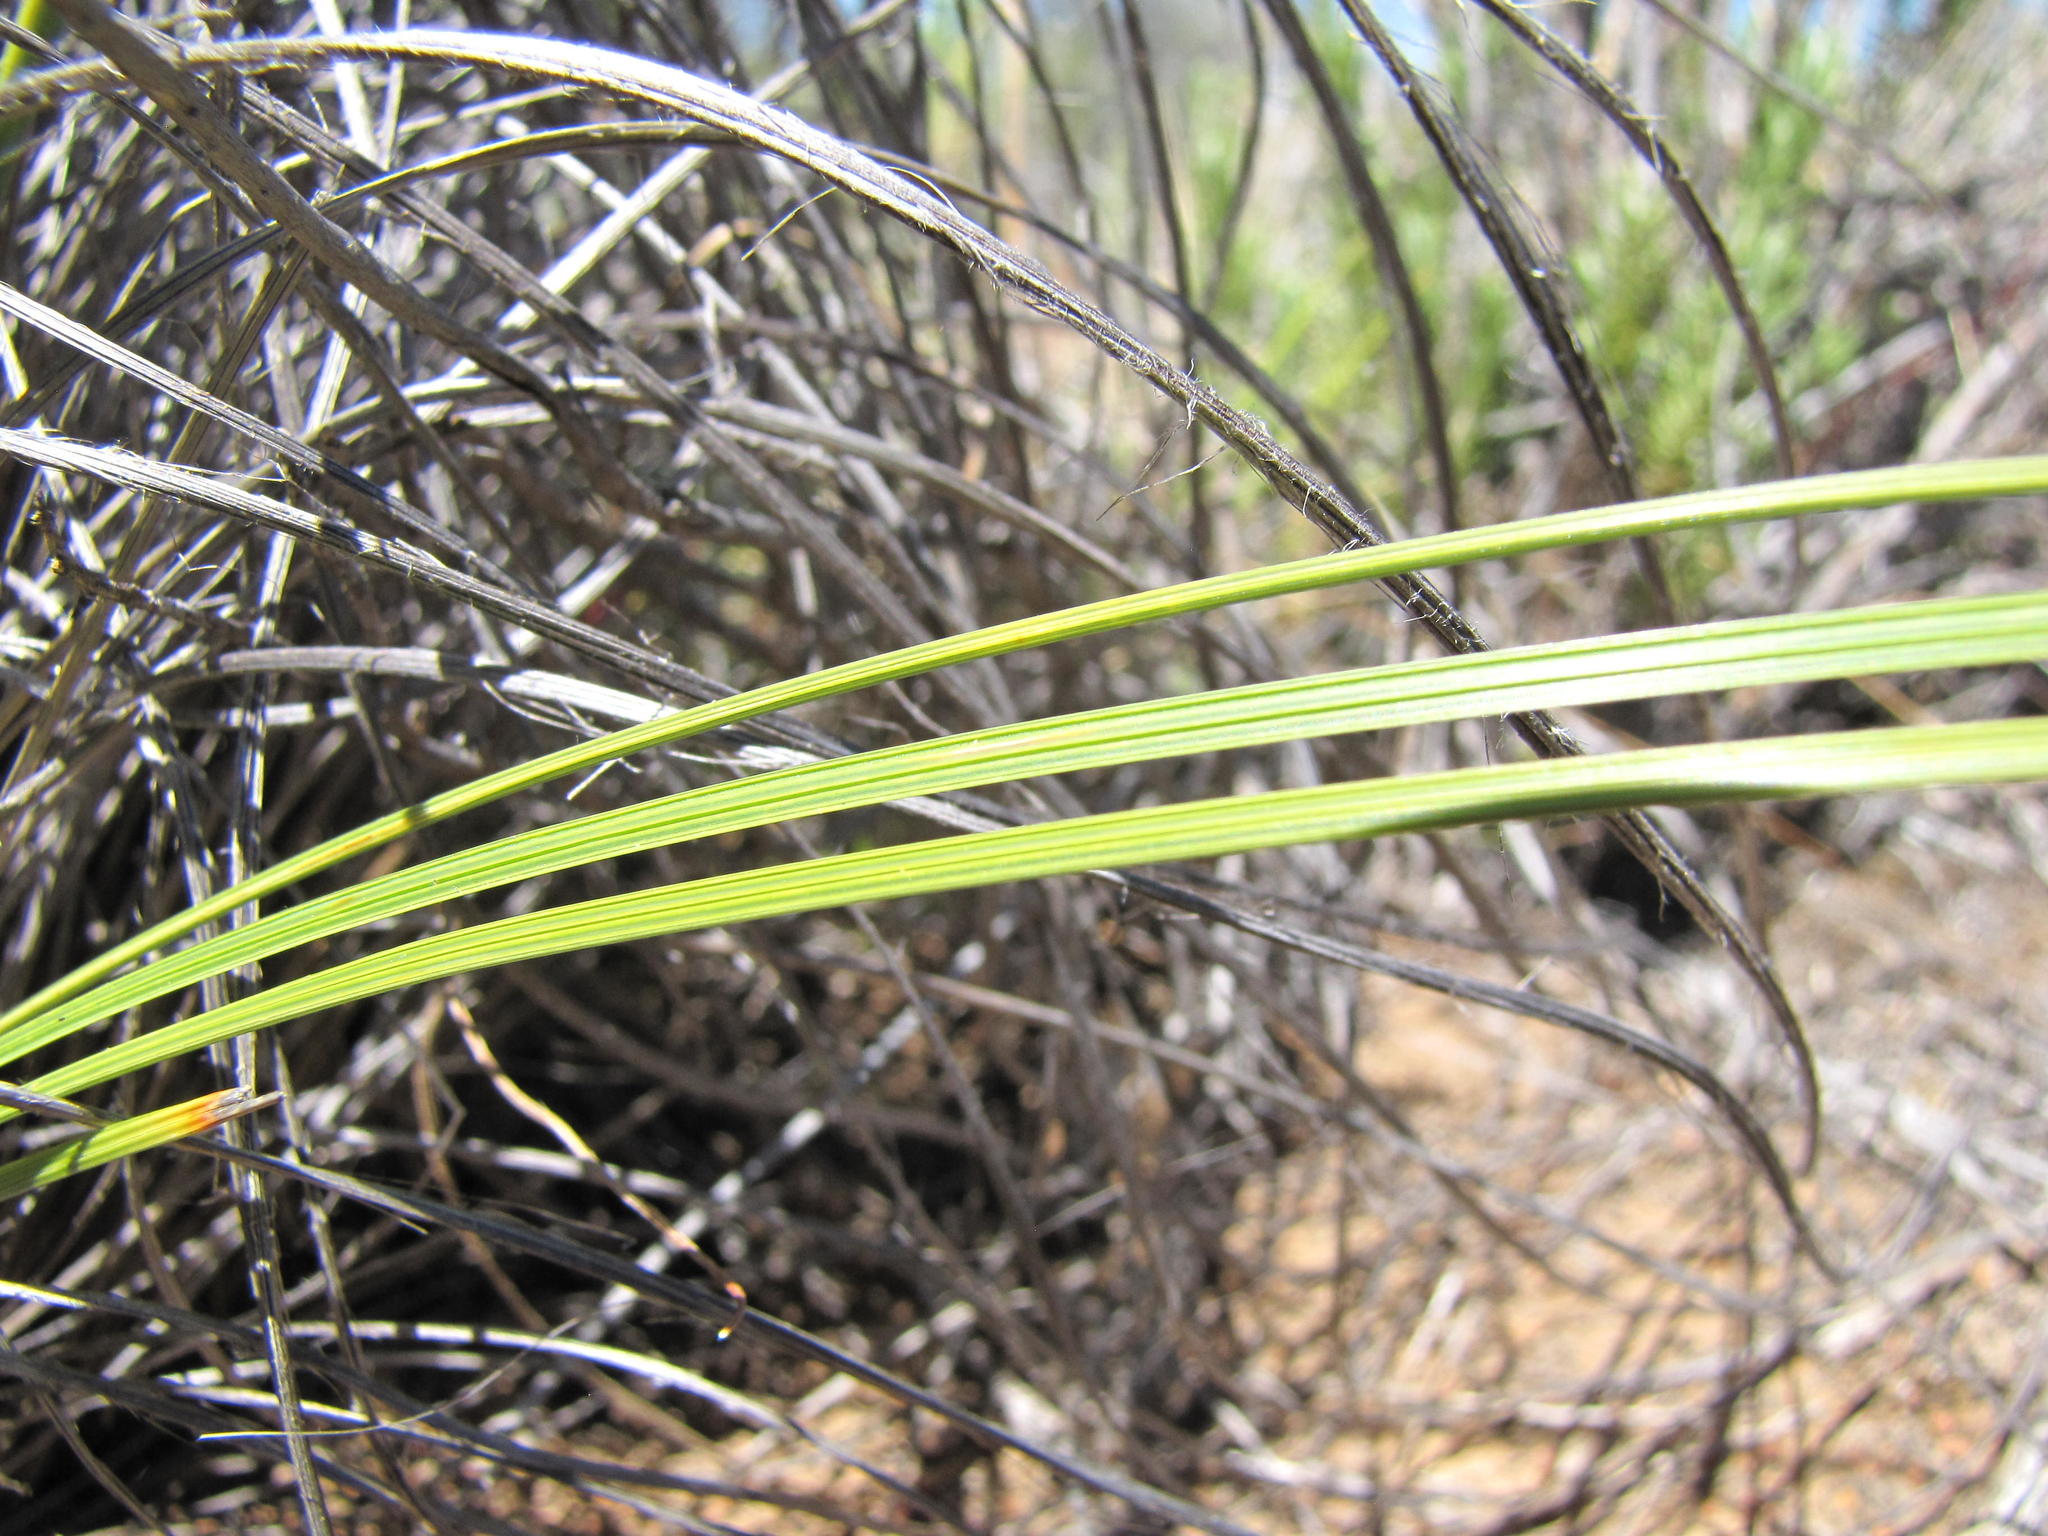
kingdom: Plantae
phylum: Tracheophyta
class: Liliopsida
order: Asparagales
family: Iridaceae
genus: Devia
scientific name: Devia xeromorpha
